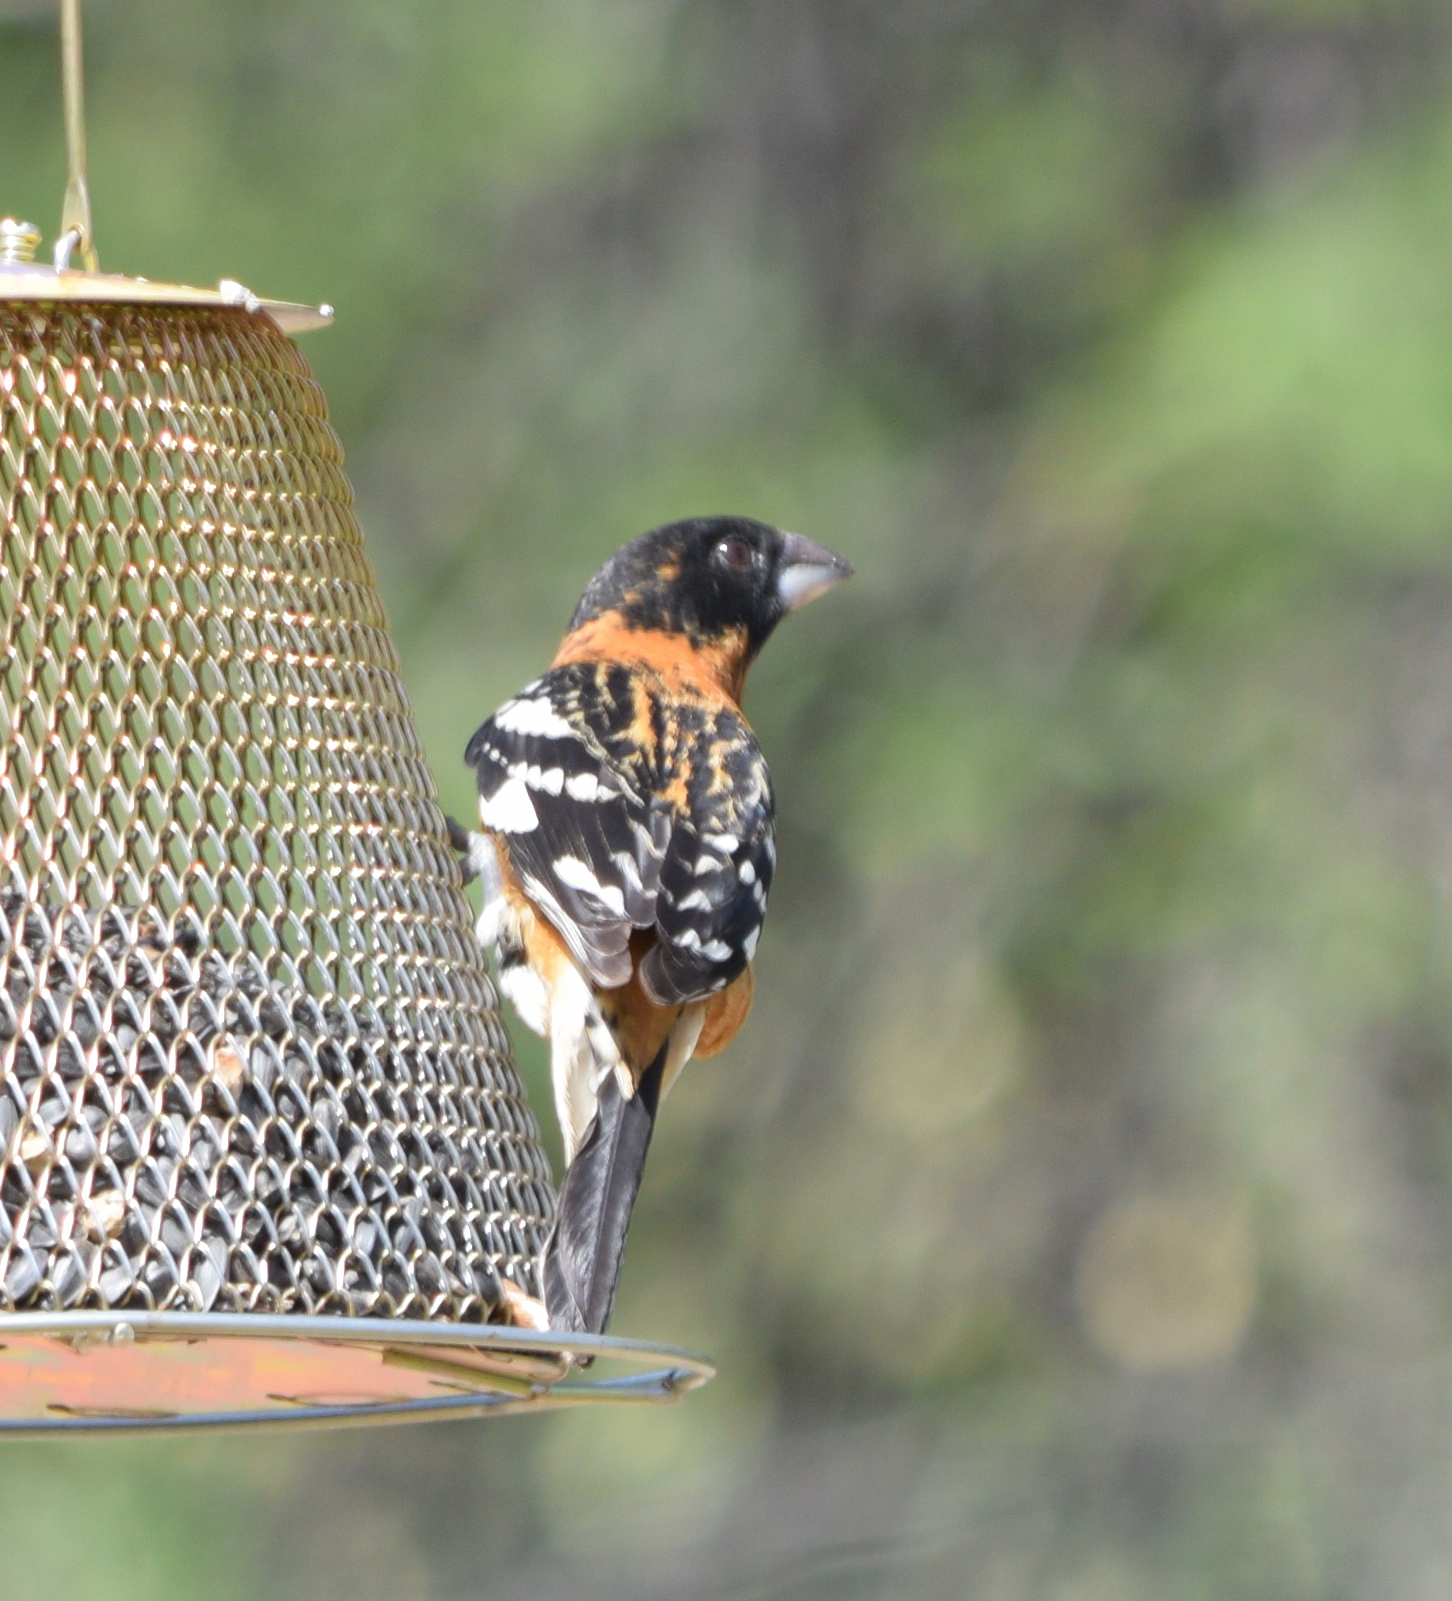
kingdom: Animalia
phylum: Chordata
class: Aves
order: Passeriformes
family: Cardinalidae
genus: Pheucticus
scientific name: Pheucticus melanocephalus
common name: Black-headed grosbeak
